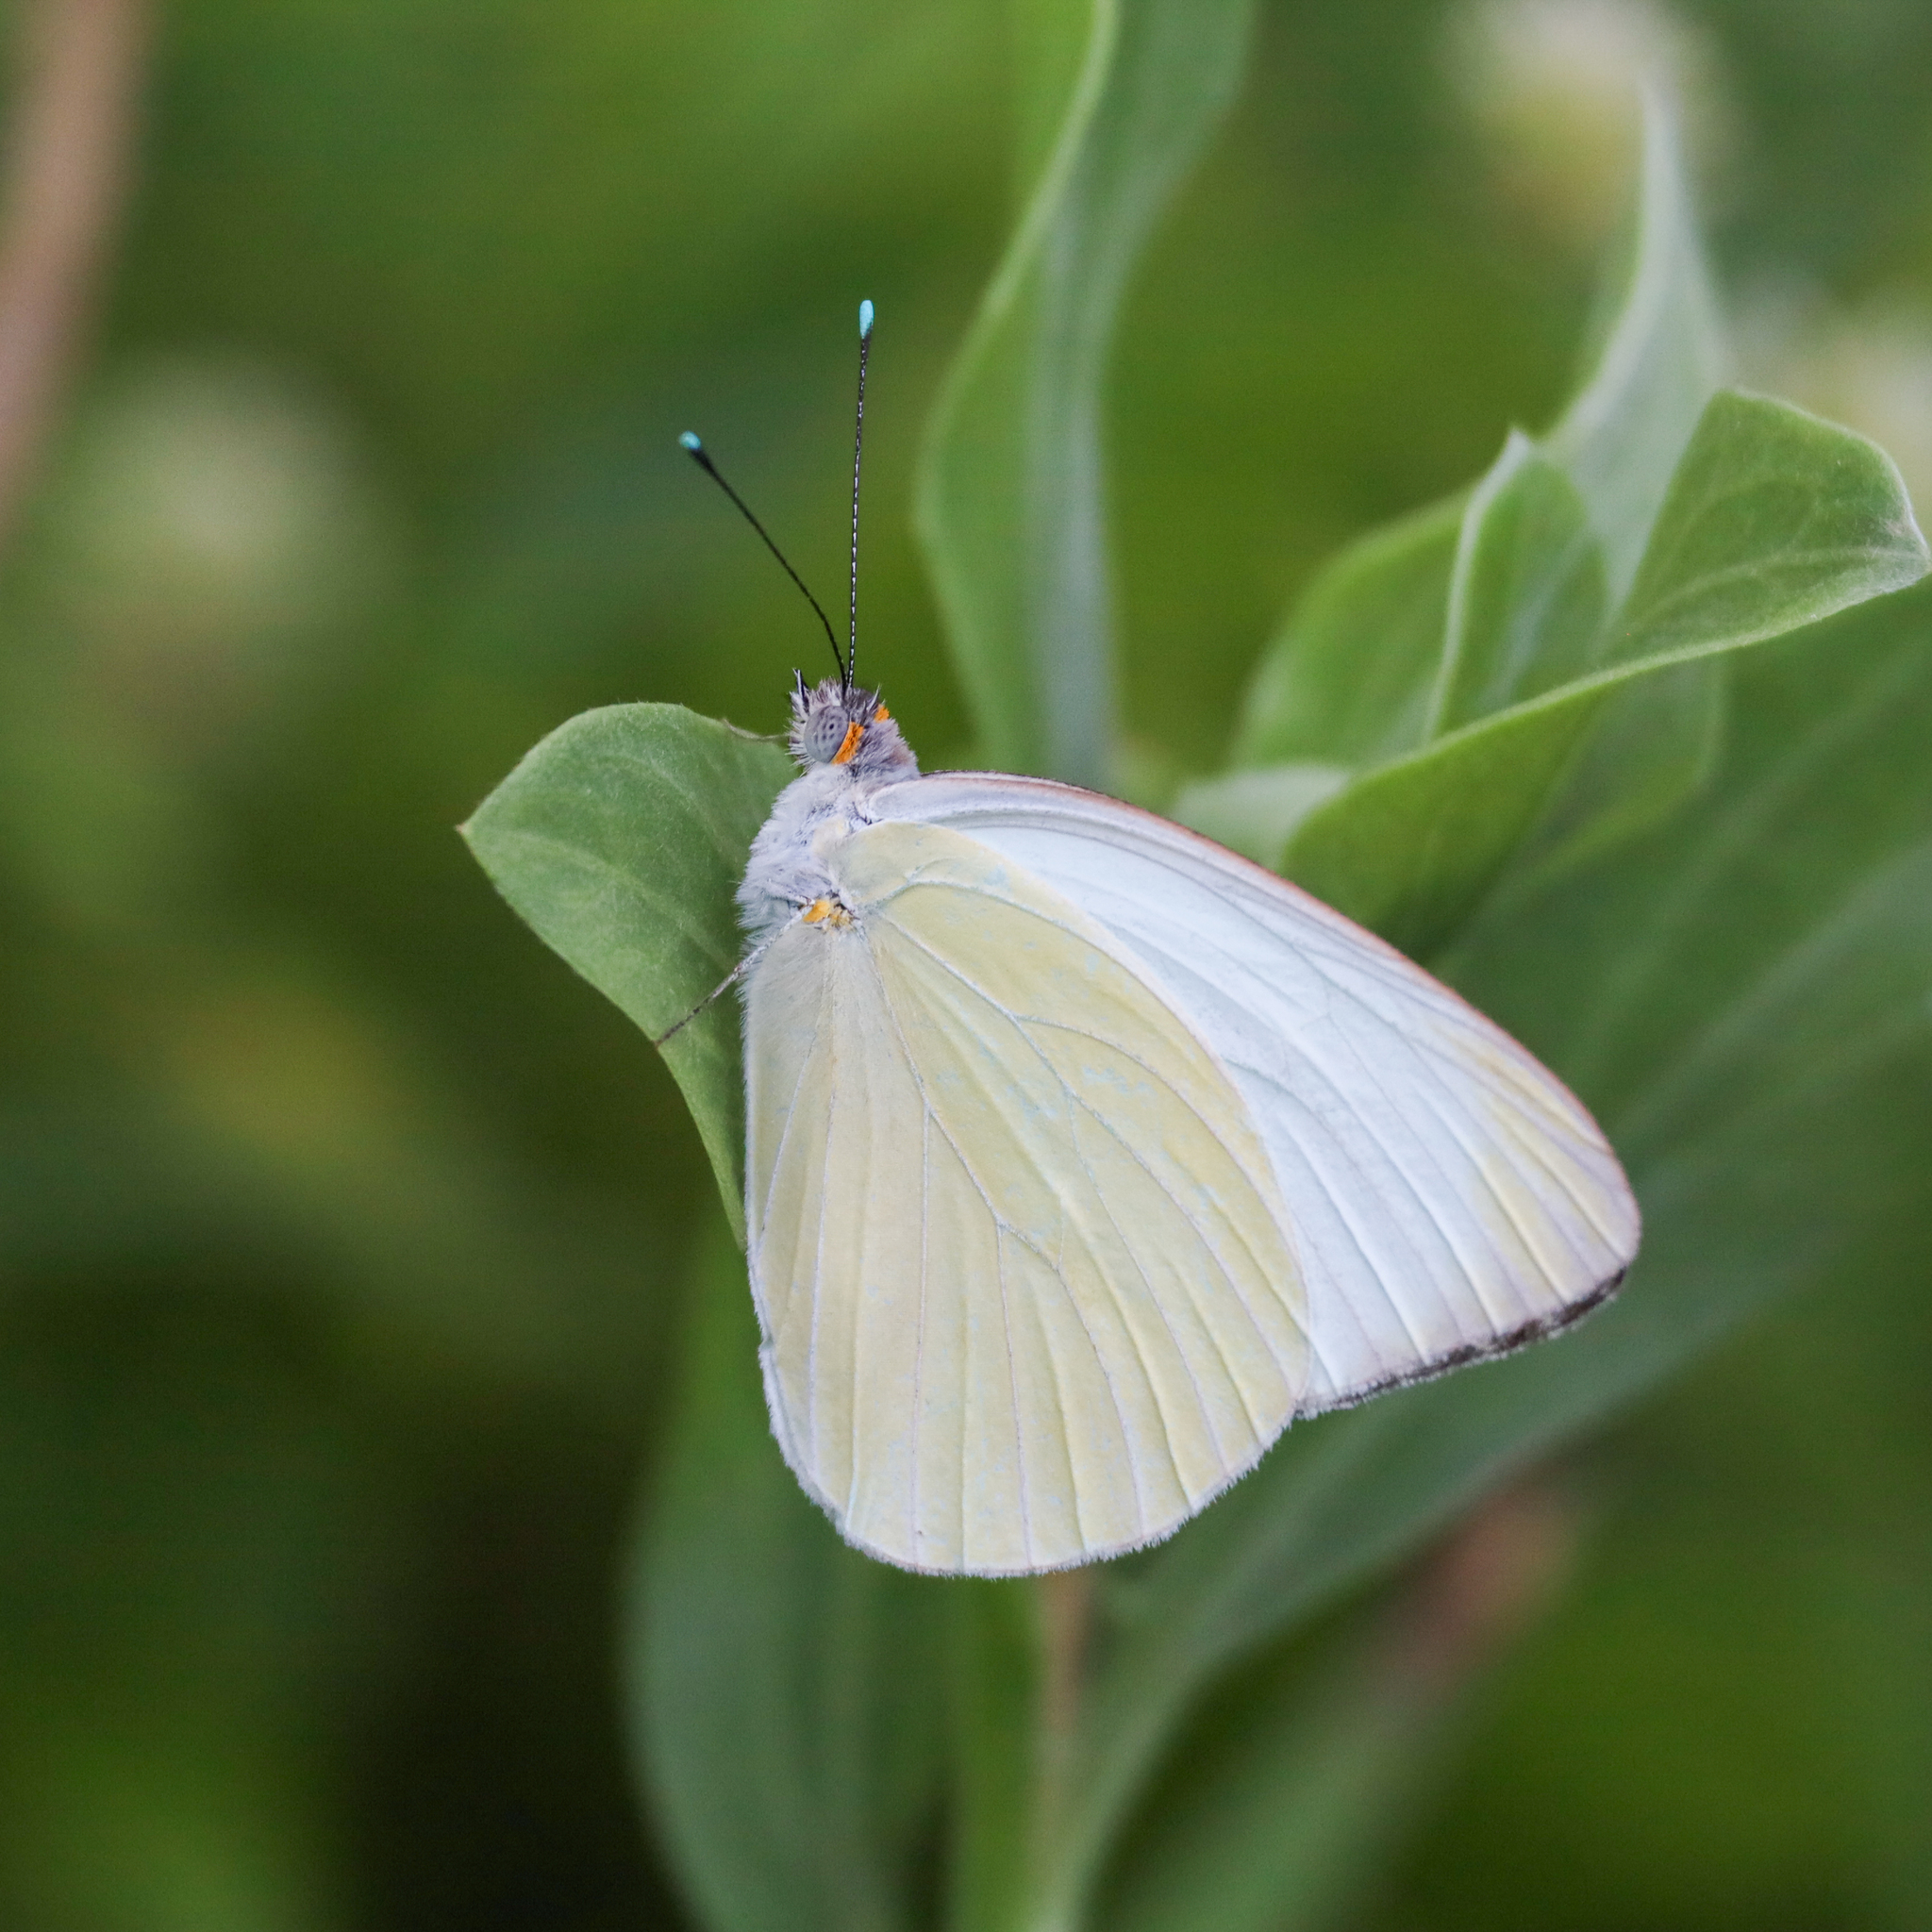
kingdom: Animalia
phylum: Arthropoda
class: Insecta
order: Lepidoptera
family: Pieridae
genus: Ascia
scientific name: Ascia monuste
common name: Great southern white
